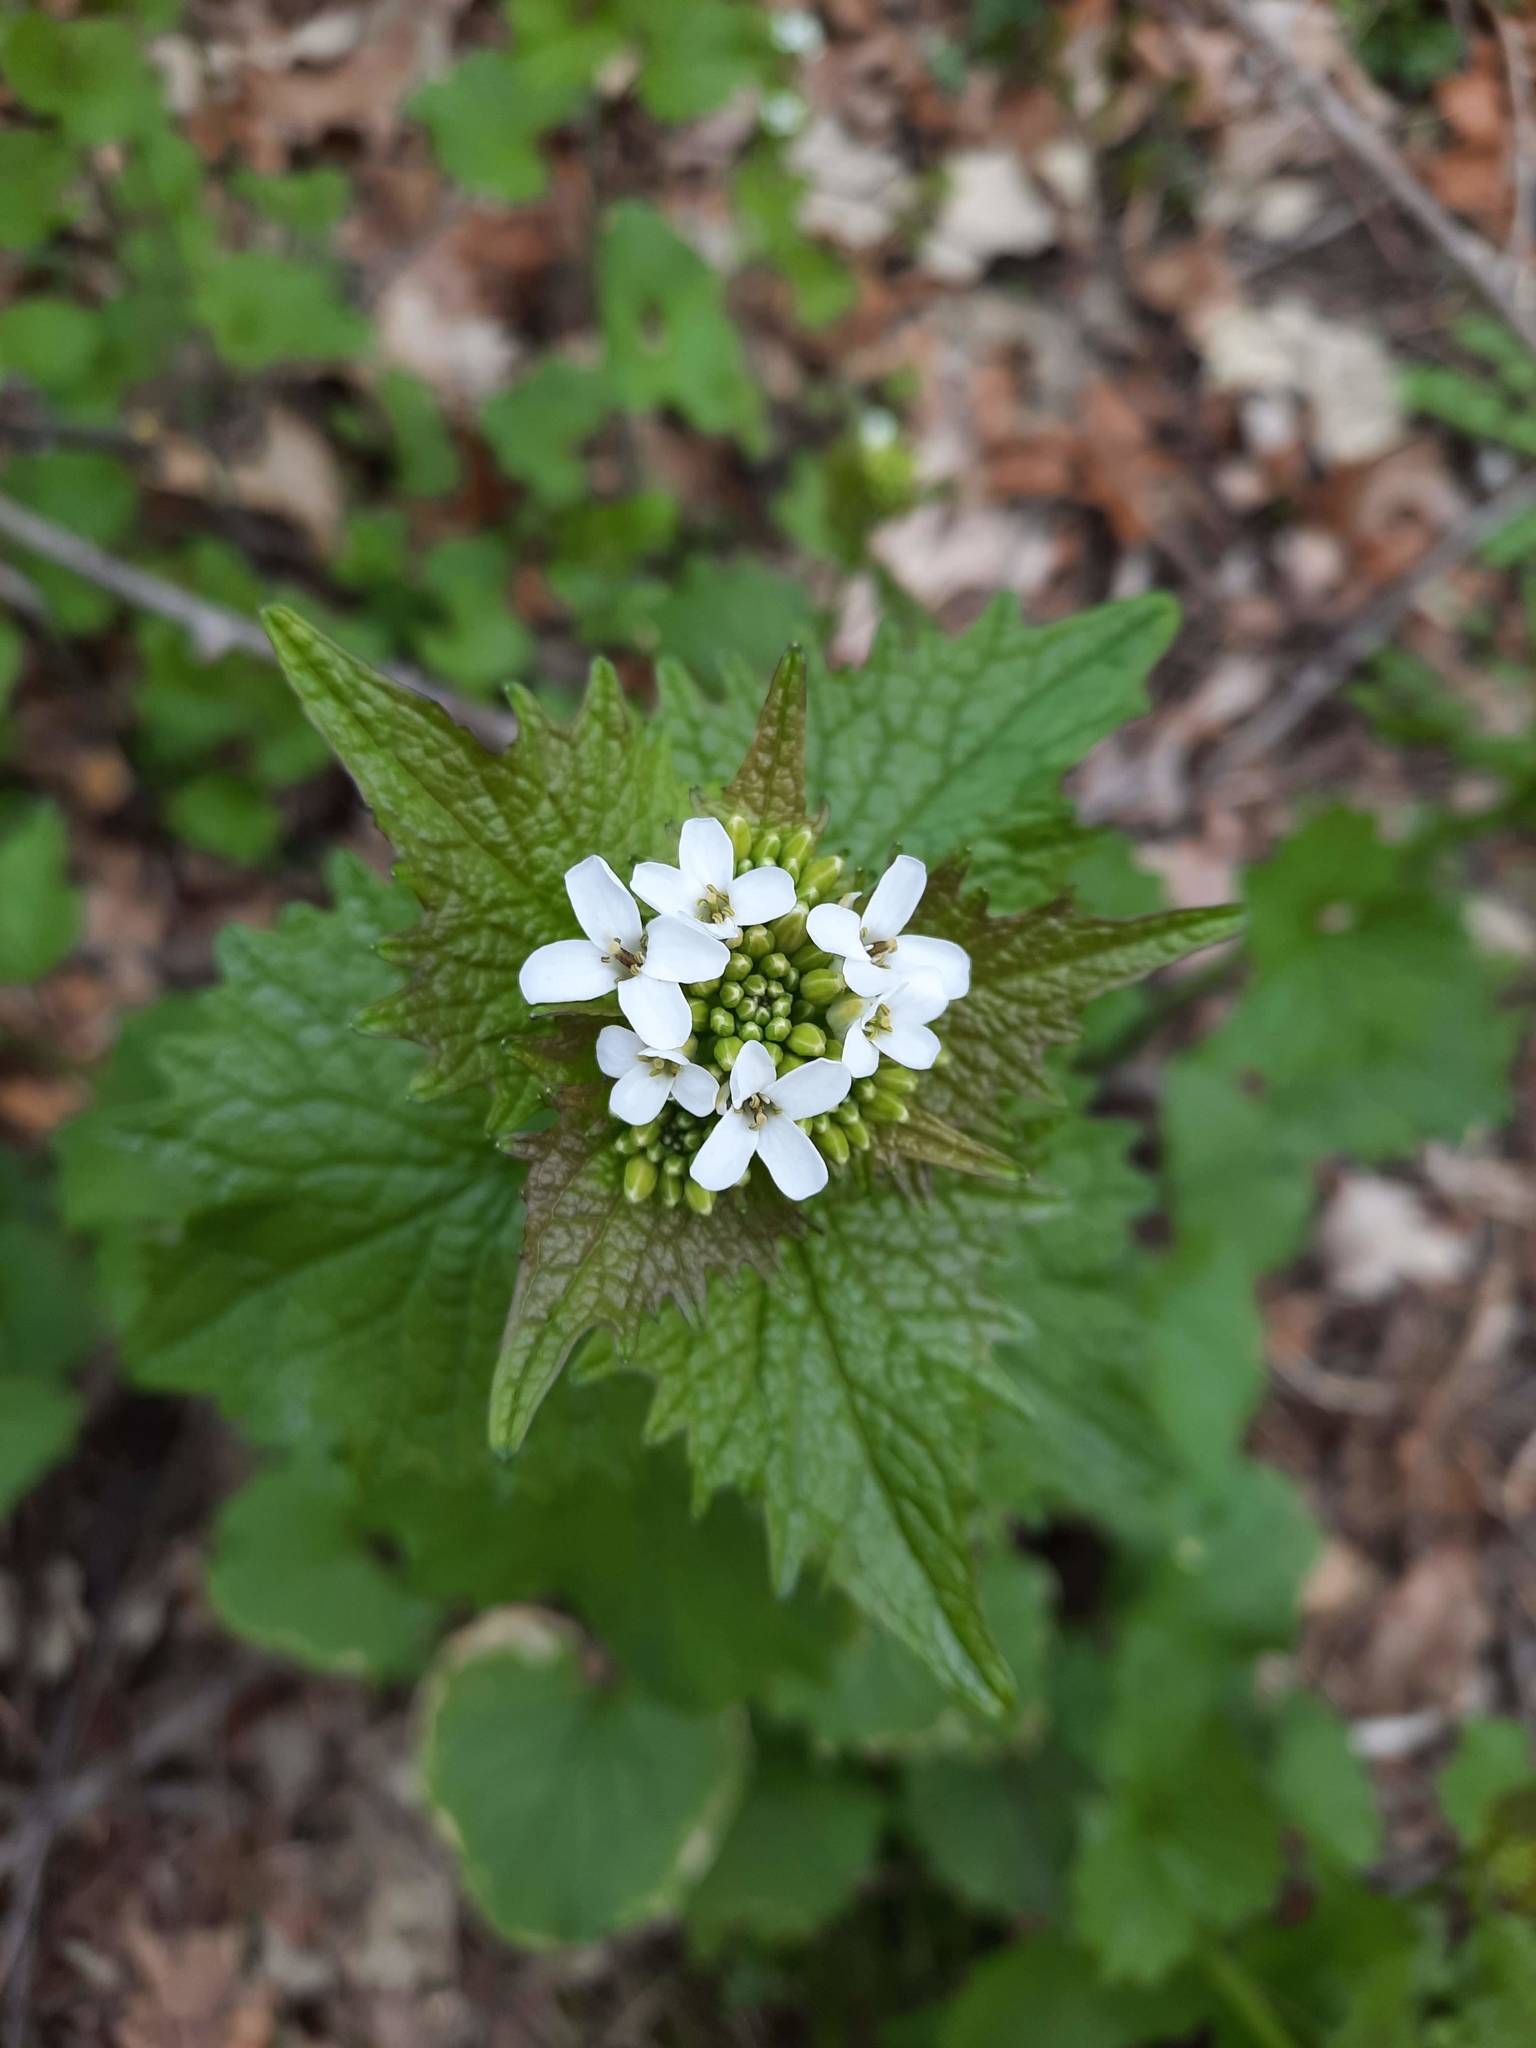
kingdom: Plantae
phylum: Tracheophyta
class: Magnoliopsida
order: Brassicales
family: Brassicaceae
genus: Alliaria
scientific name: Alliaria petiolata
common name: Garlic mustard
